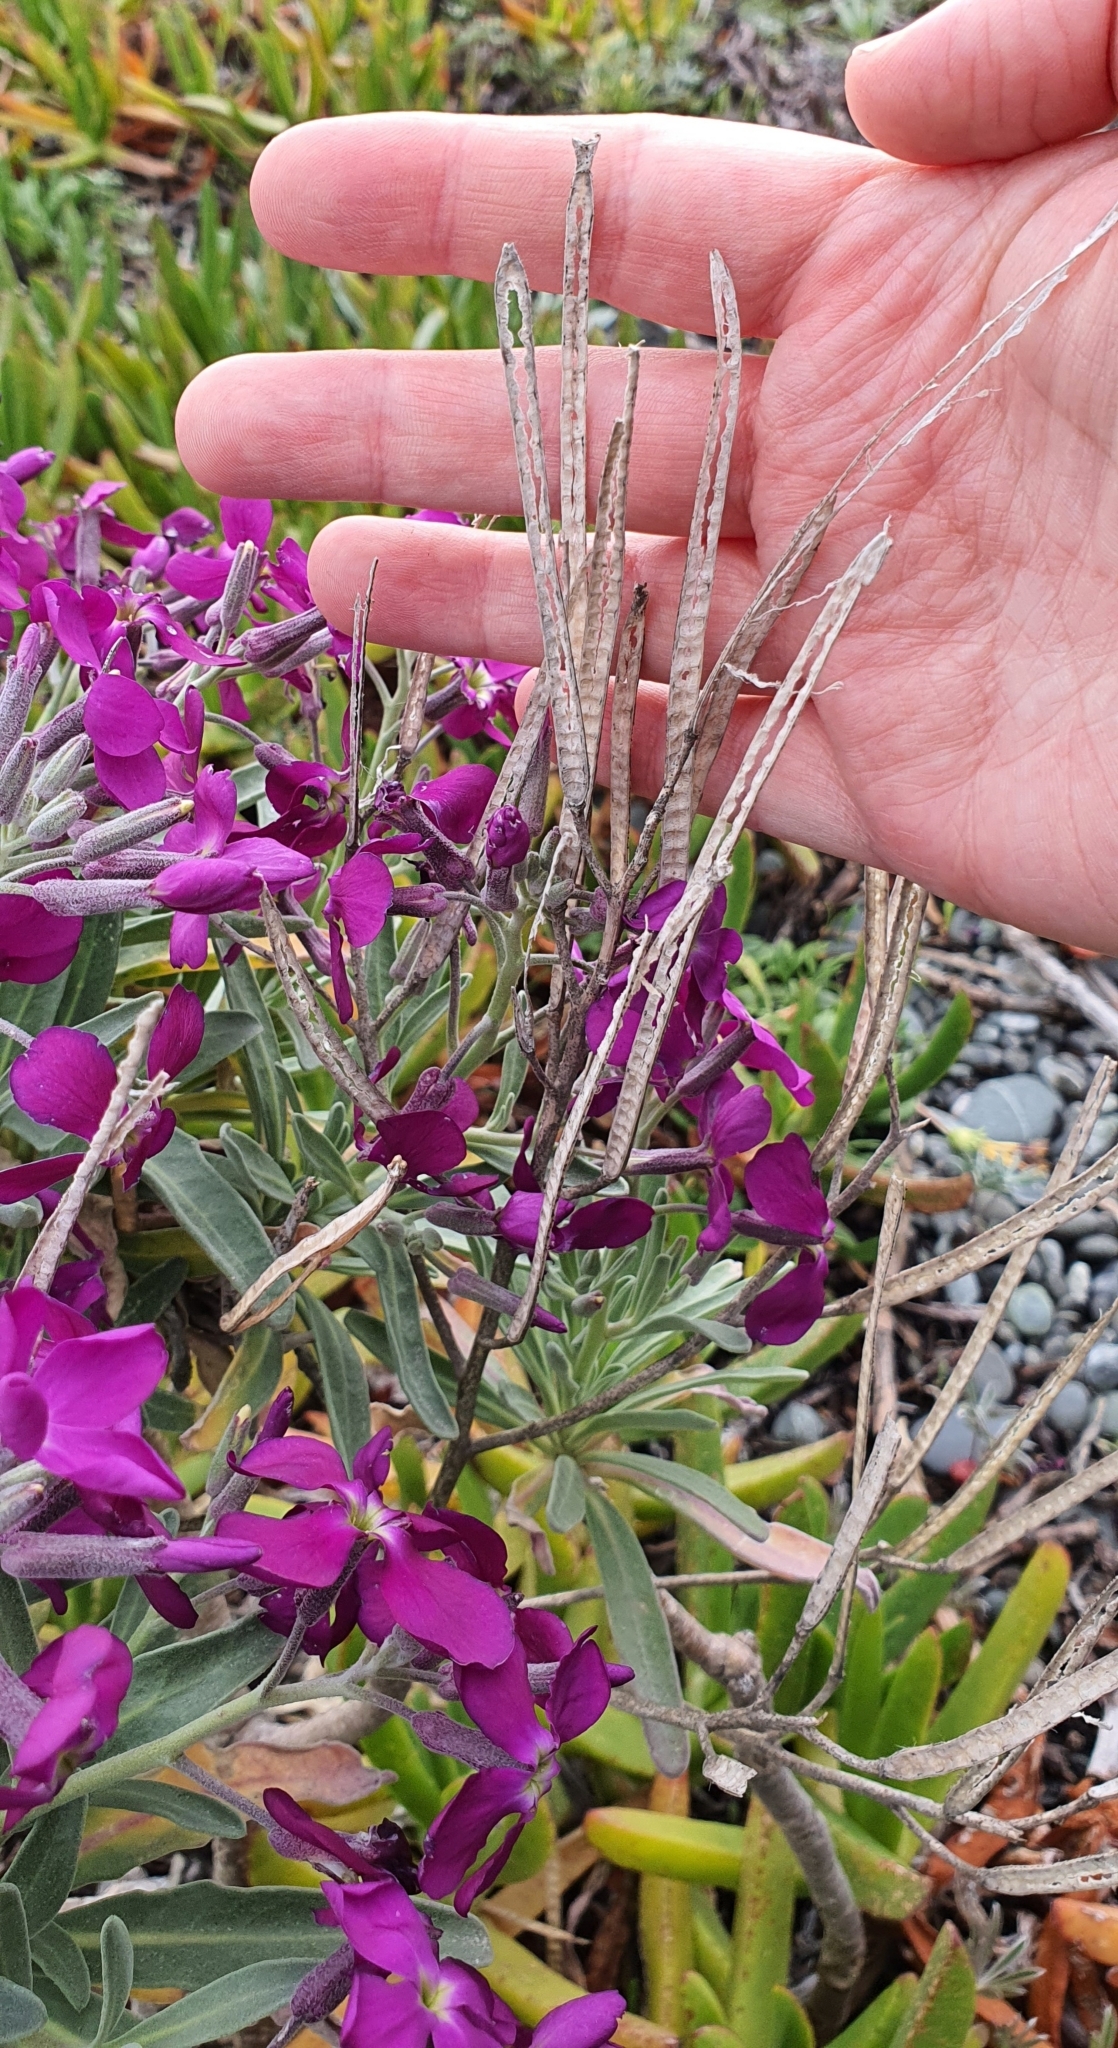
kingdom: Plantae
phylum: Tracheophyta
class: Magnoliopsida
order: Brassicales
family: Brassicaceae
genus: Matthiola
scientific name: Matthiola incana
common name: Hoary stock
